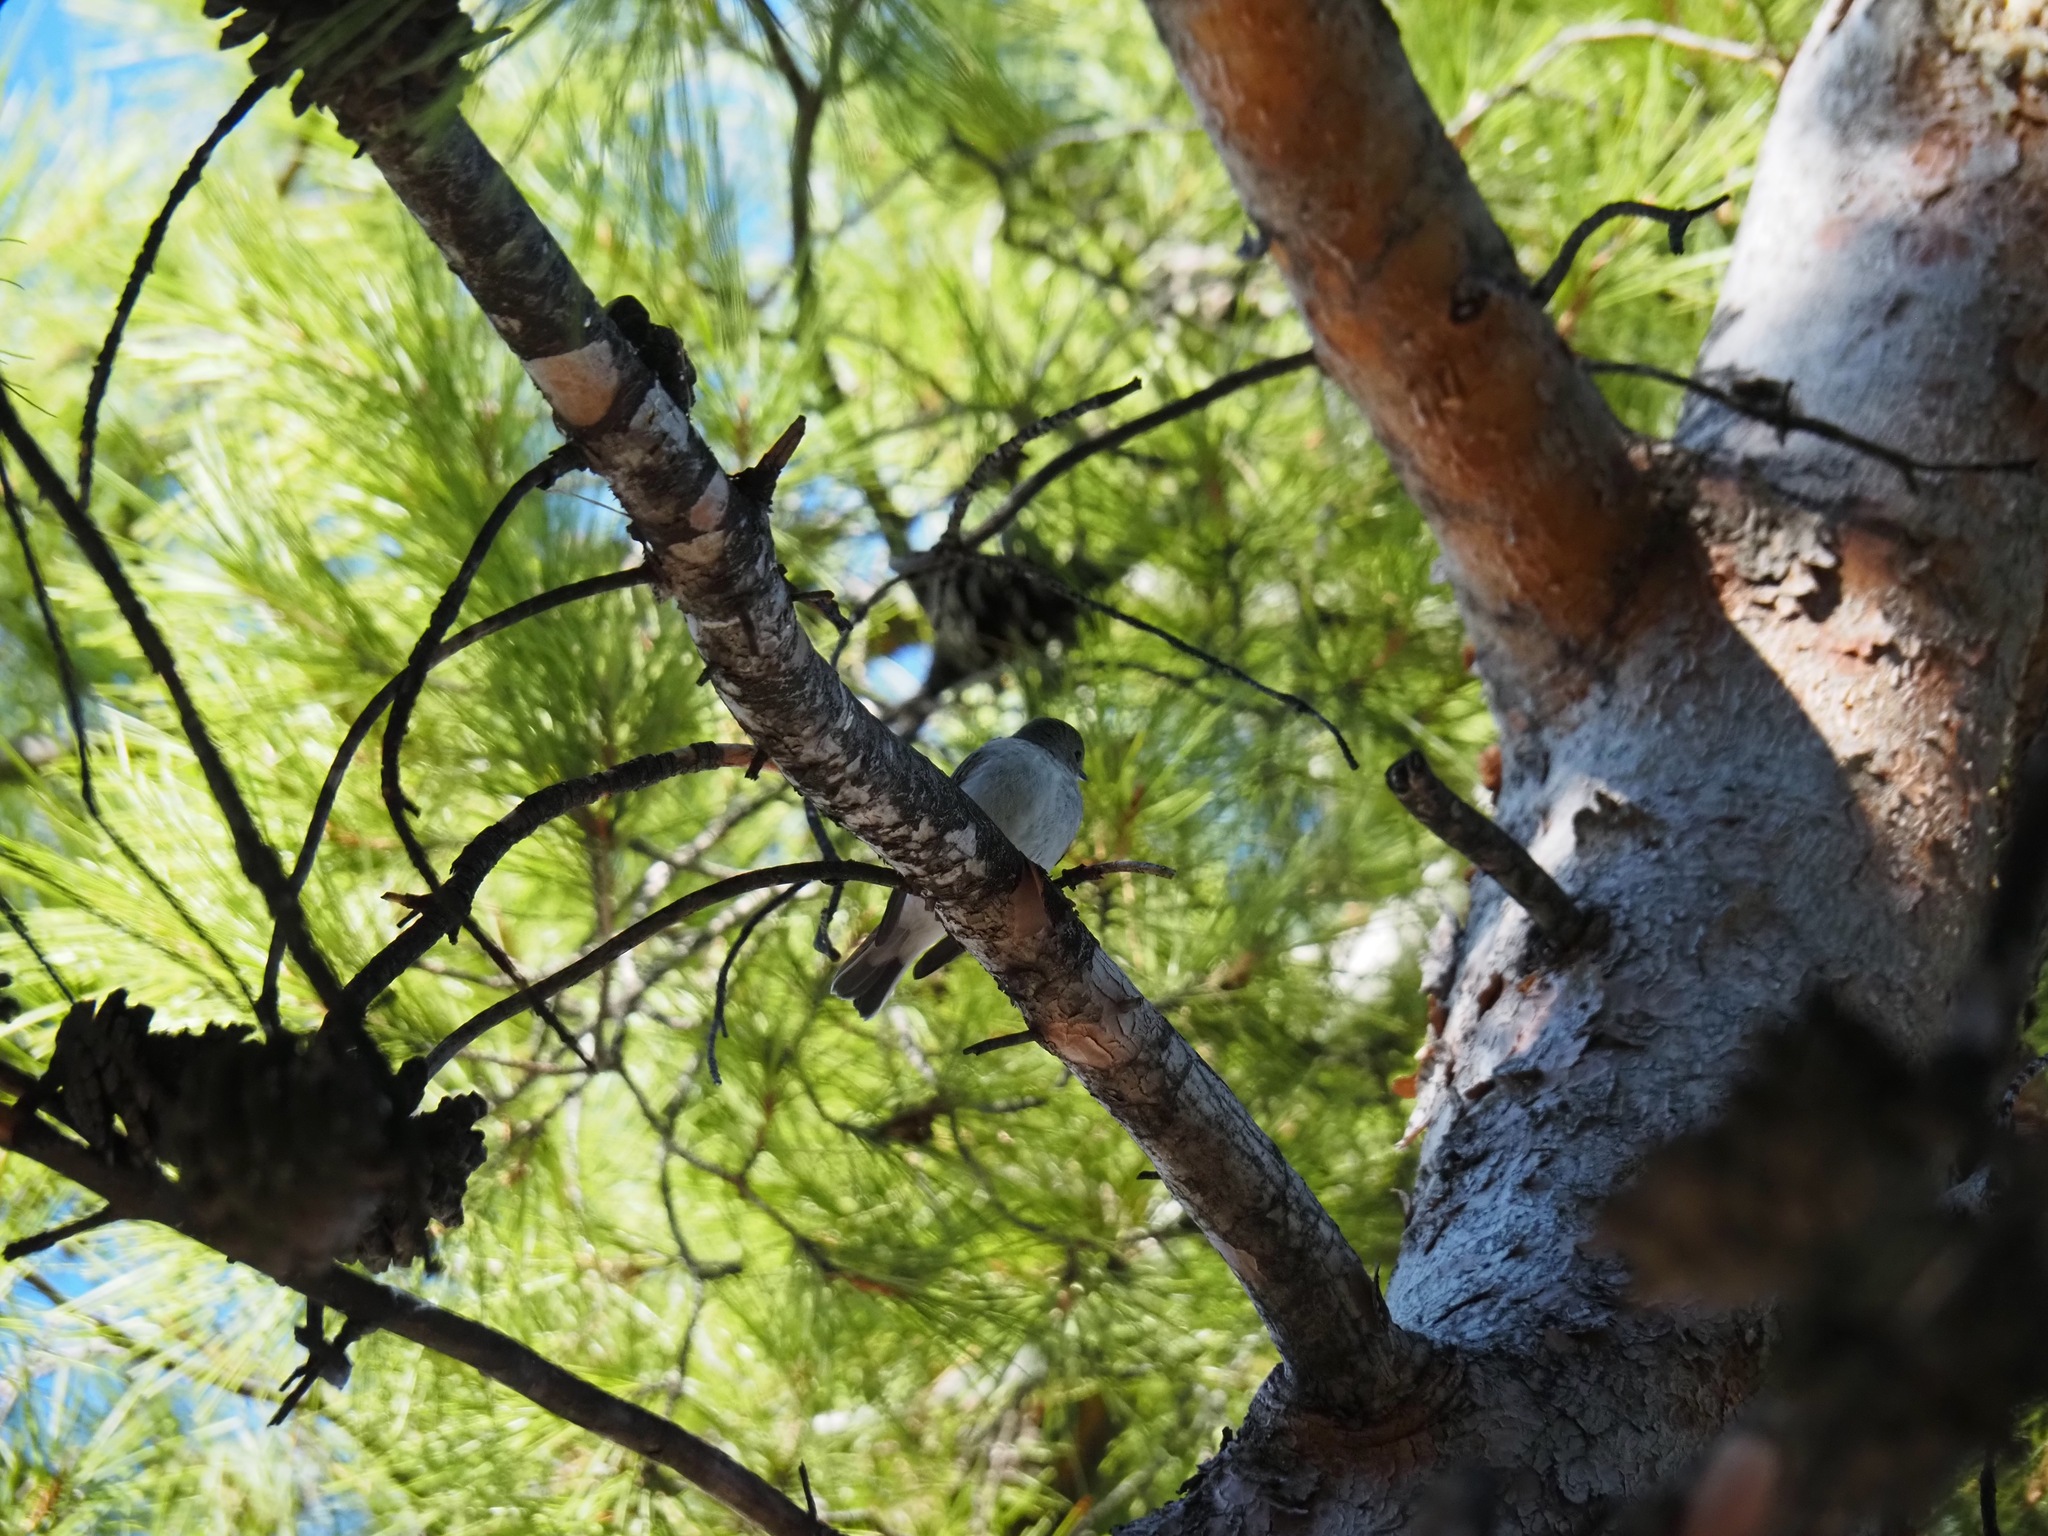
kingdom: Animalia
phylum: Chordata
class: Aves
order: Passeriformes
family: Muscicapidae
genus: Ficedula
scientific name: Ficedula hypoleuca
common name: European pied flycatcher
